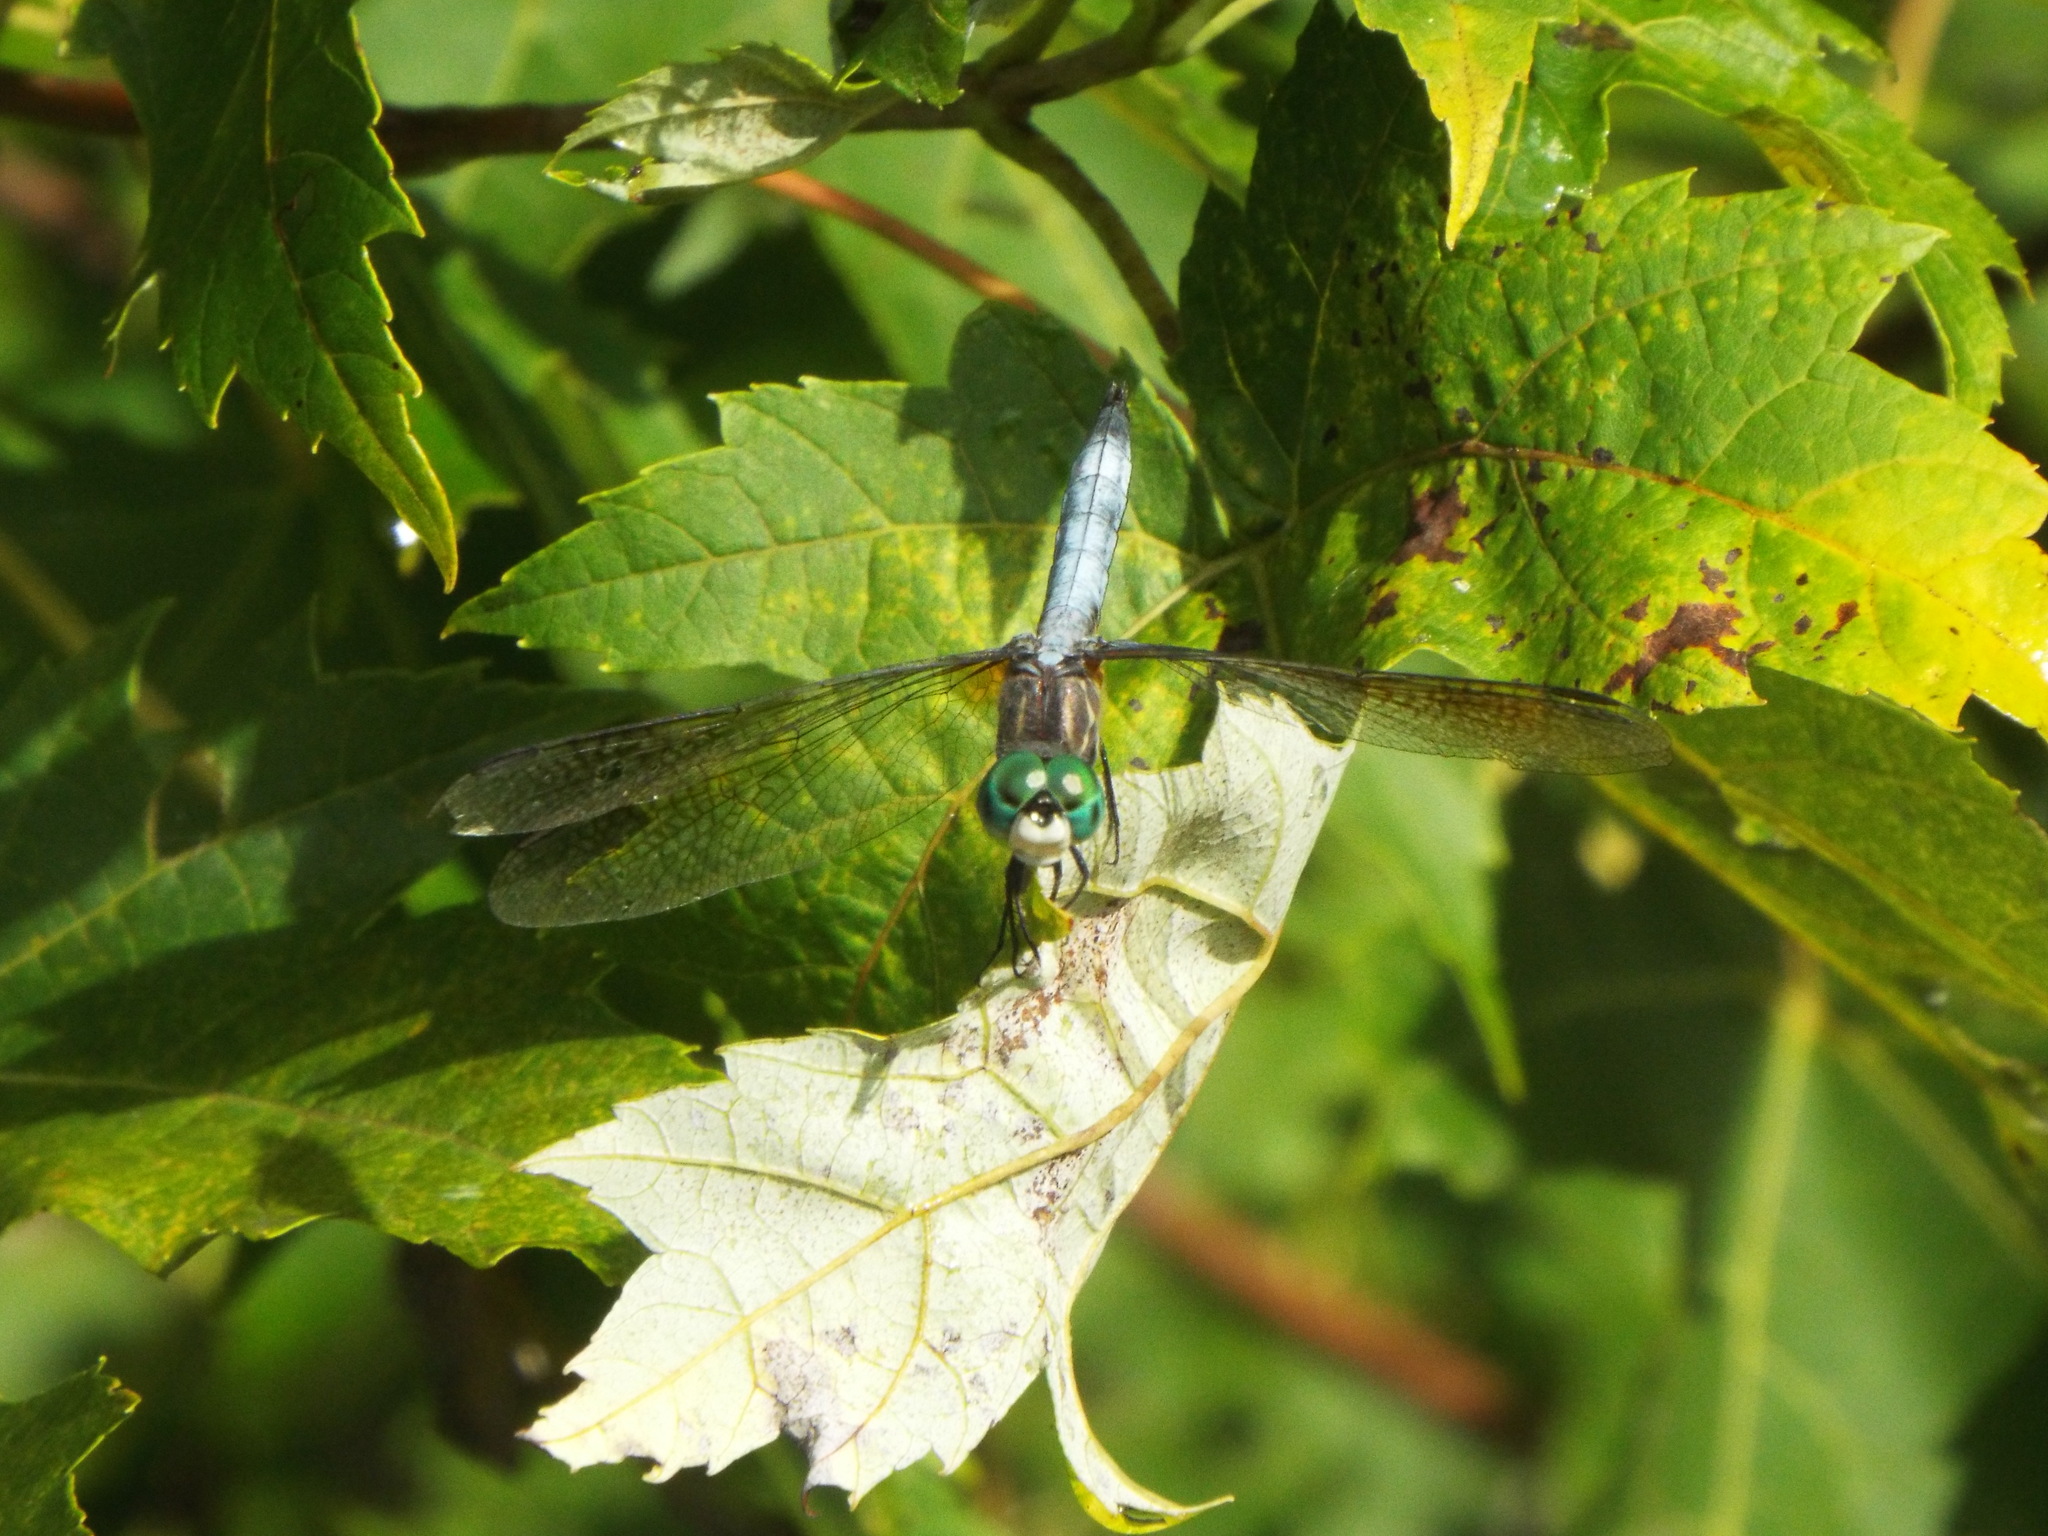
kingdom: Animalia
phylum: Arthropoda
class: Insecta
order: Odonata
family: Libellulidae
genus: Pachydiplax
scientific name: Pachydiplax longipennis
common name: Blue dasher
